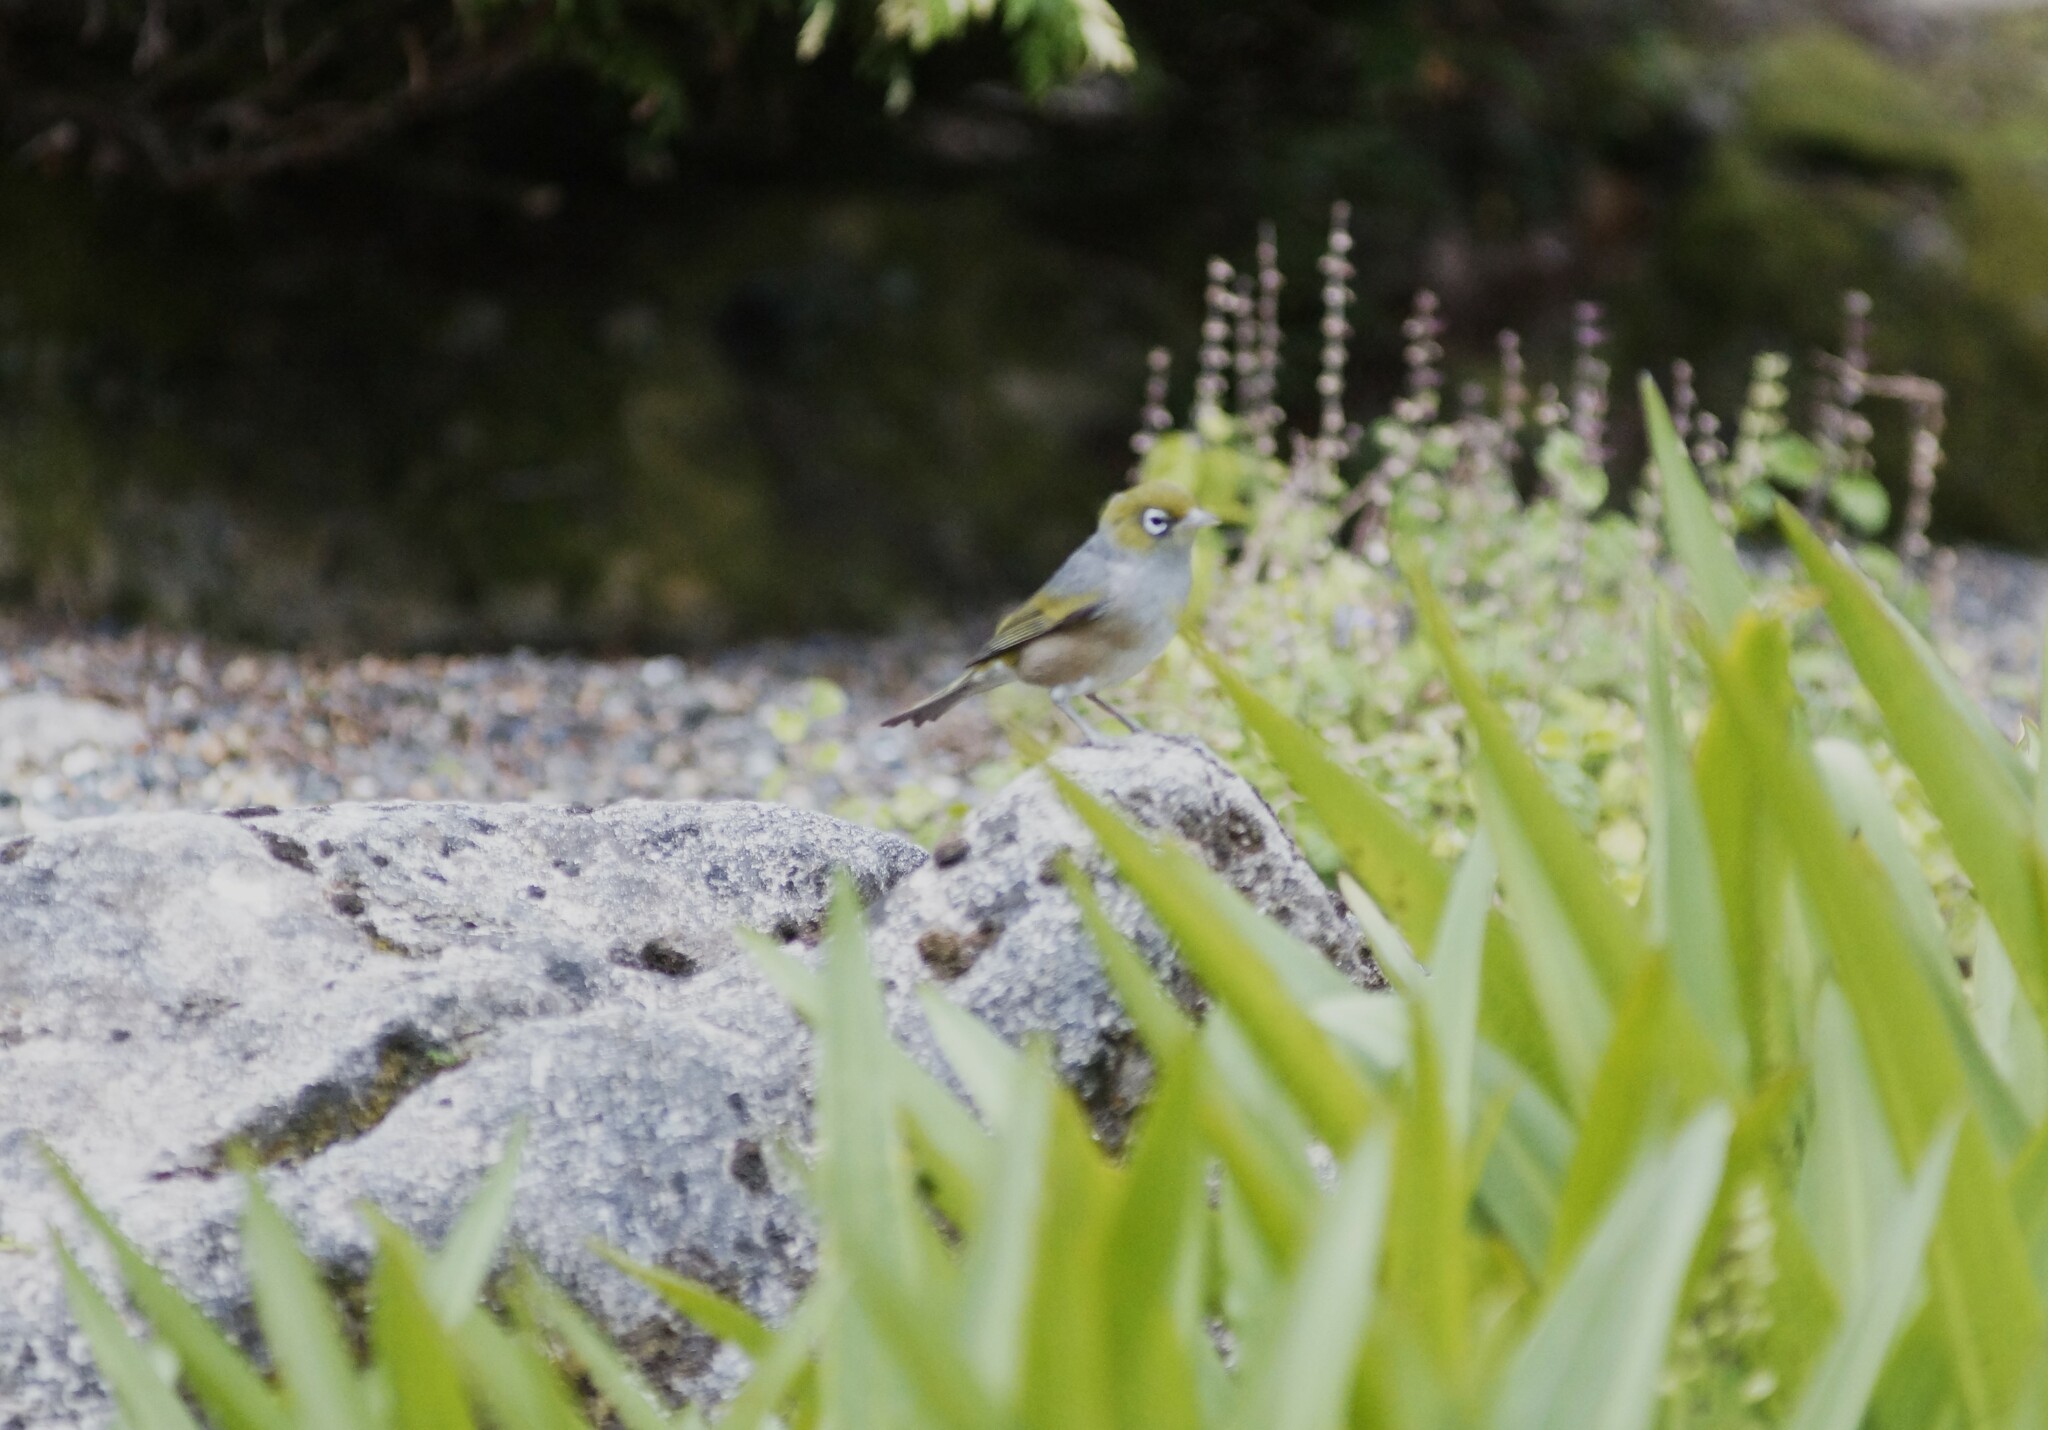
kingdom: Animalia
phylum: Chordata
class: Aves
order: Passeriformes
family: Zosteropidae
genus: Zosterops
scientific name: Zosterops lateralis
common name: Silvereye
